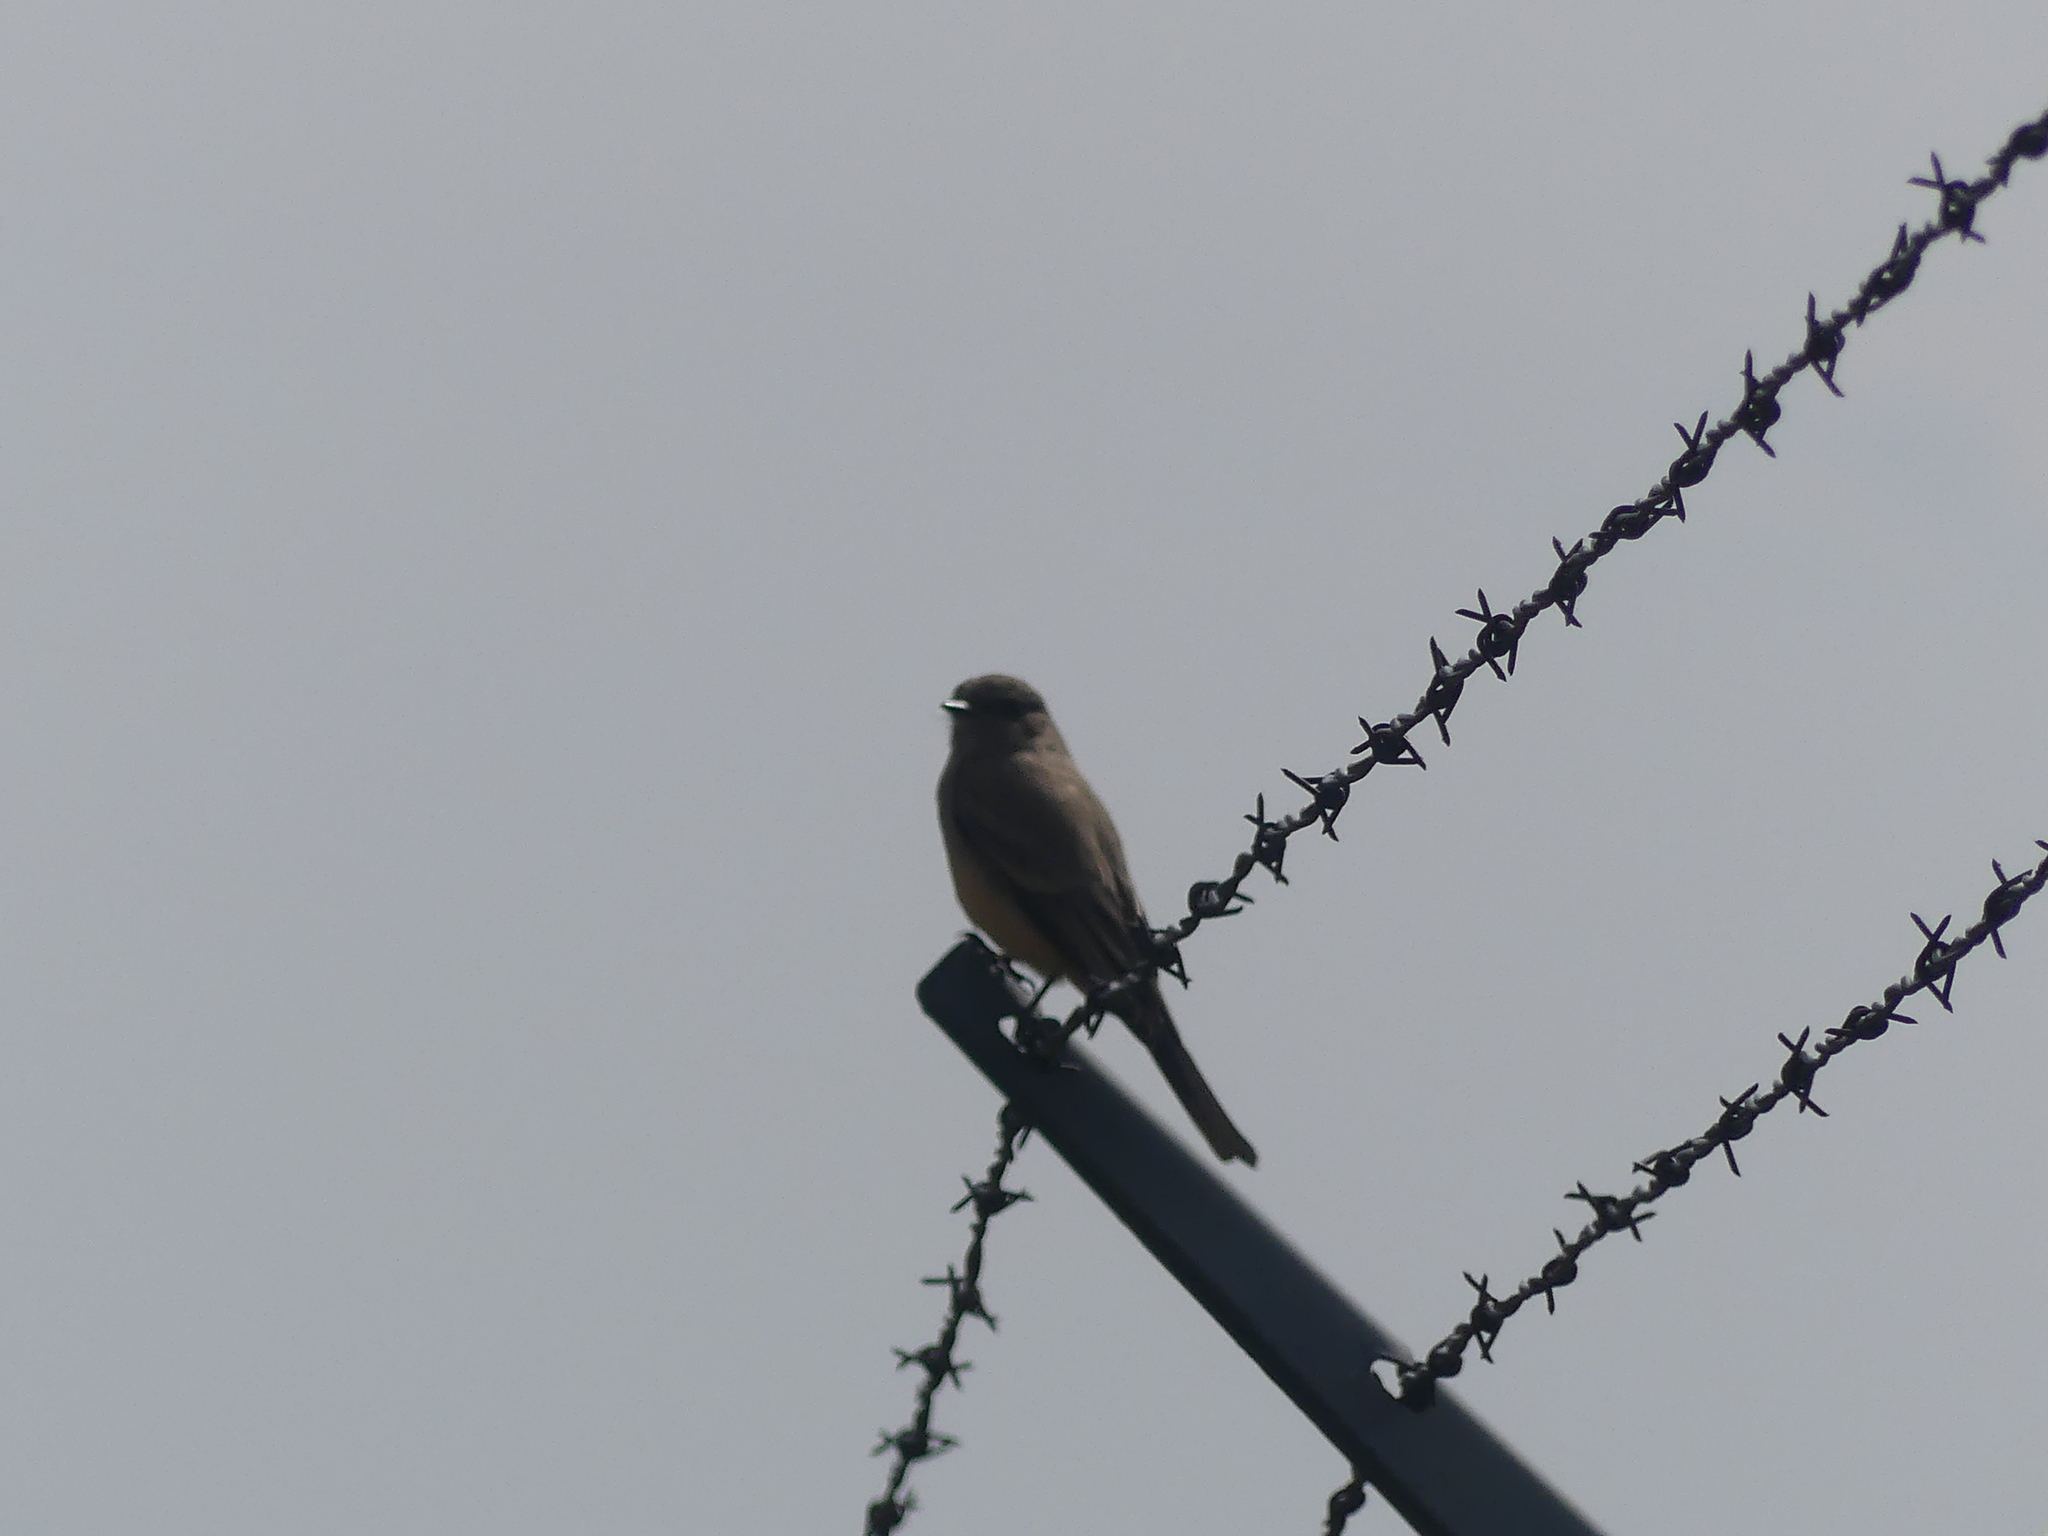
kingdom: Animalia
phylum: Chordata
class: Aves
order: Passeriformes
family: Tyrannidae
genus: Sayornis
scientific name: Sayornis saya
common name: Say's phoebe
